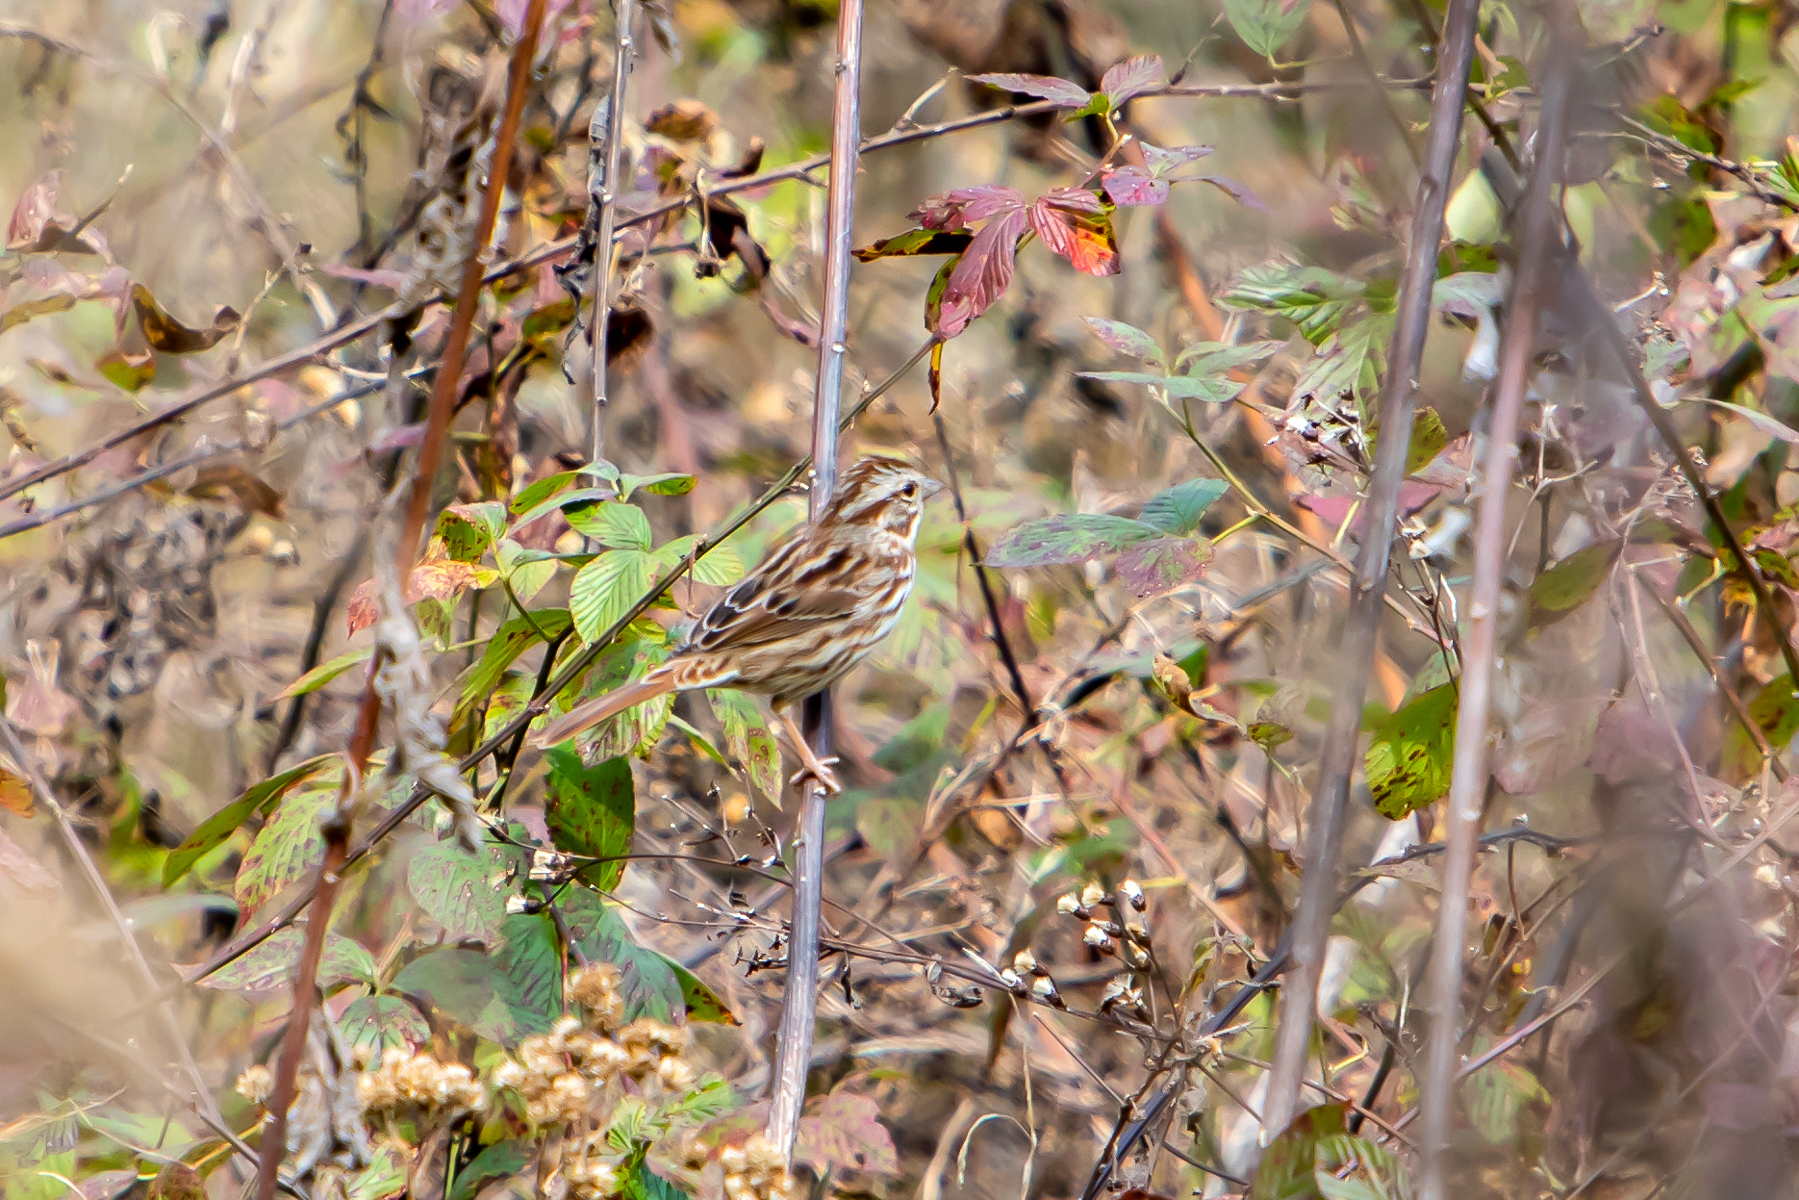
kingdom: Animalia
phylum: Chordata
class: Aves
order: Passeriformes
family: Passerellidae
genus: Melospiza
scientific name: Melospiza melodia
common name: Song sparrow
